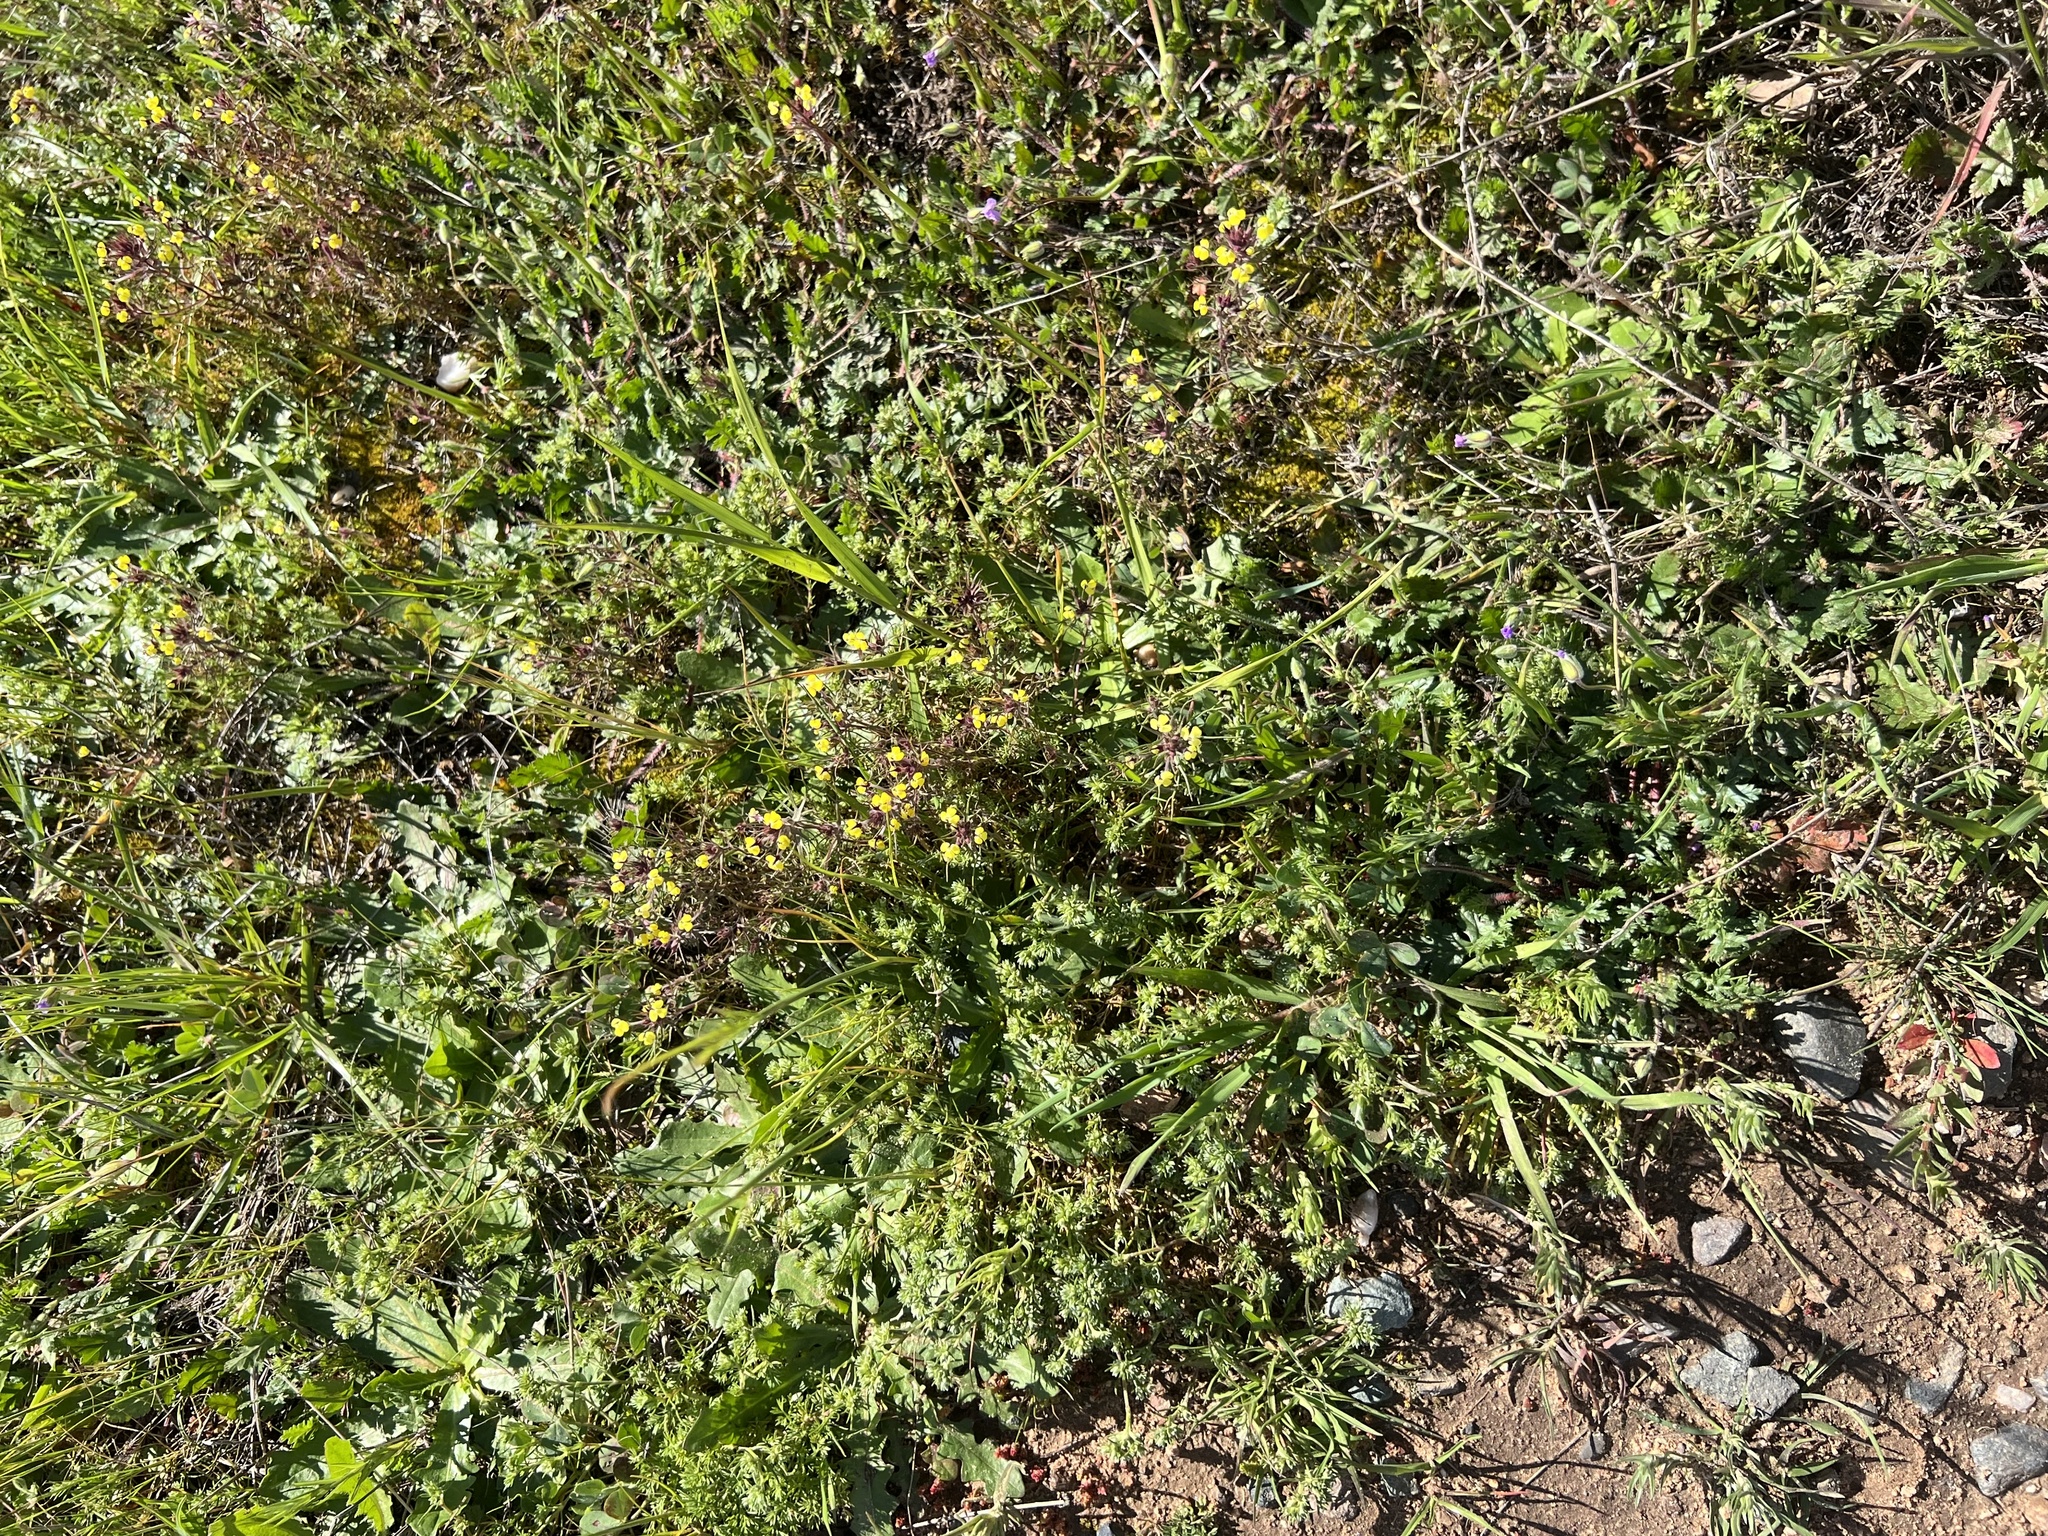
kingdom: Plantae
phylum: Tracheophyta
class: Magnoliopsida
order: Lamiales
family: Orobanchaceae
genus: Triphysaria
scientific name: Triphysaria eriantha
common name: Johnny-tuck
